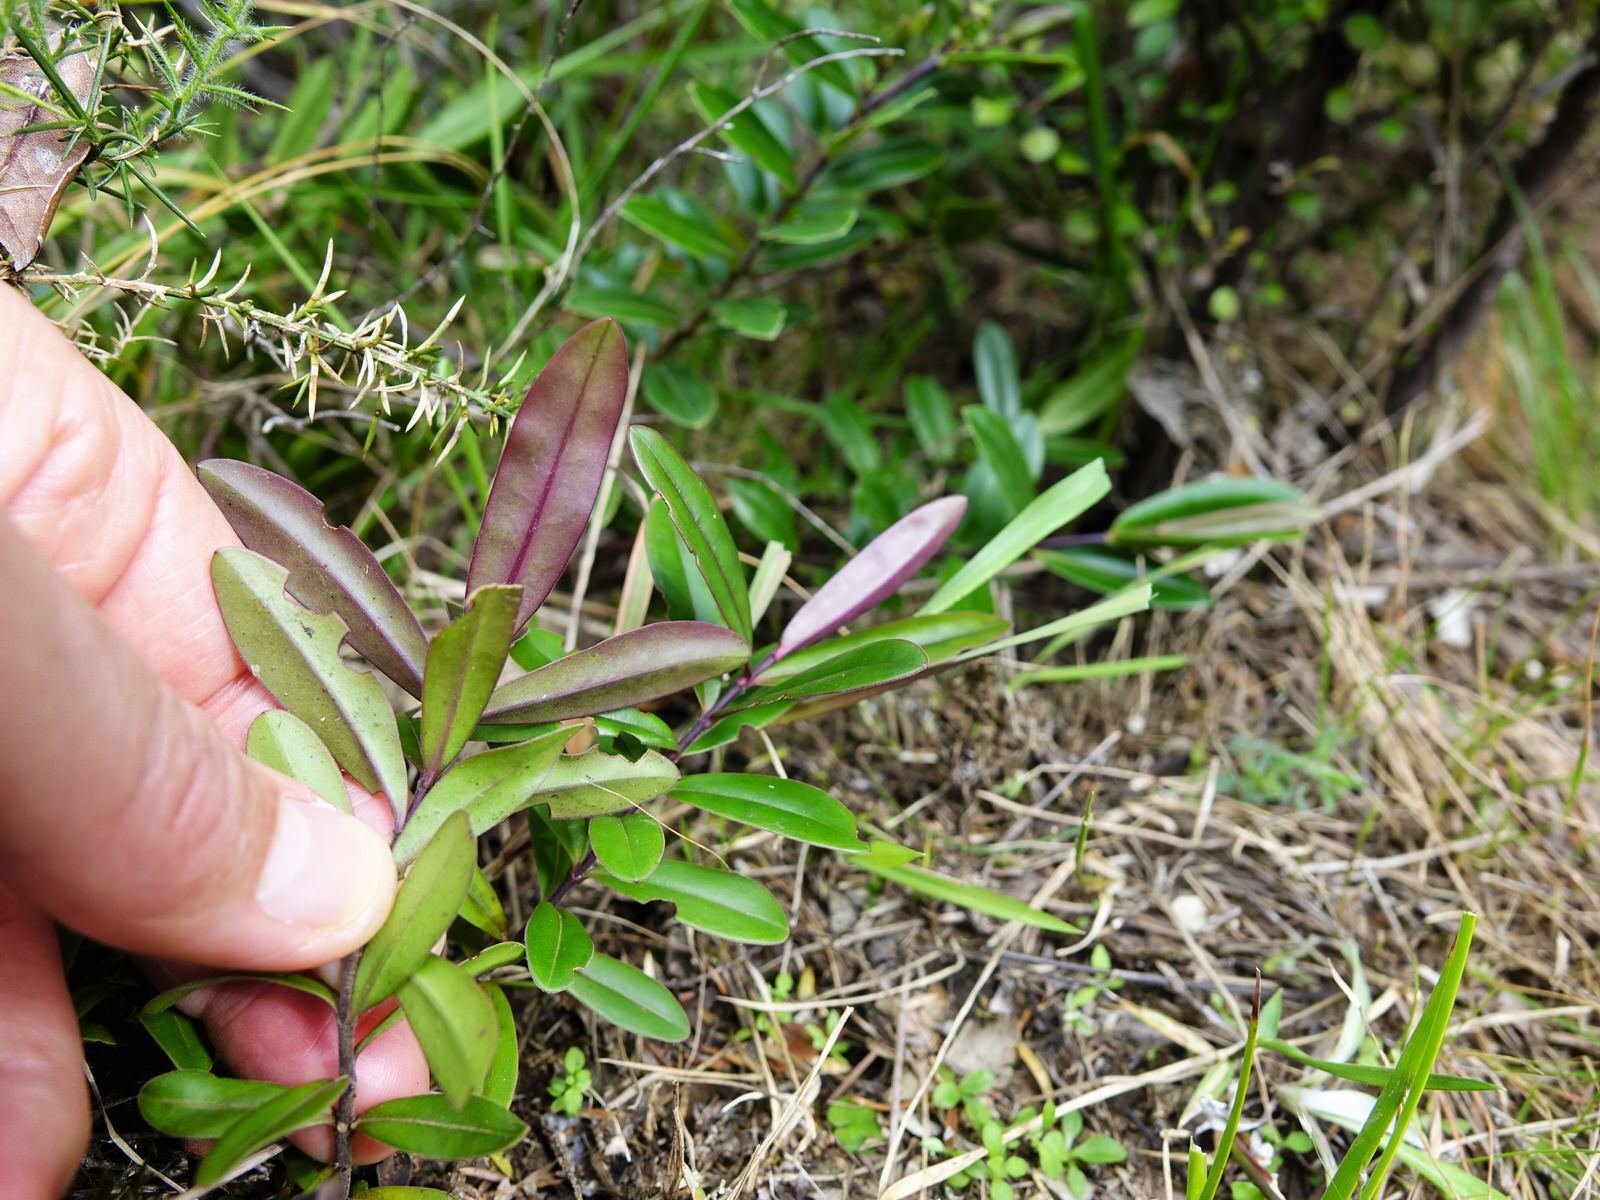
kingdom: Plantae
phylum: Tracheophyta
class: Magnoliopsida
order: Lamiales
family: Plantaginaceae
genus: Veronica
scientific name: Veronica bishopiana
